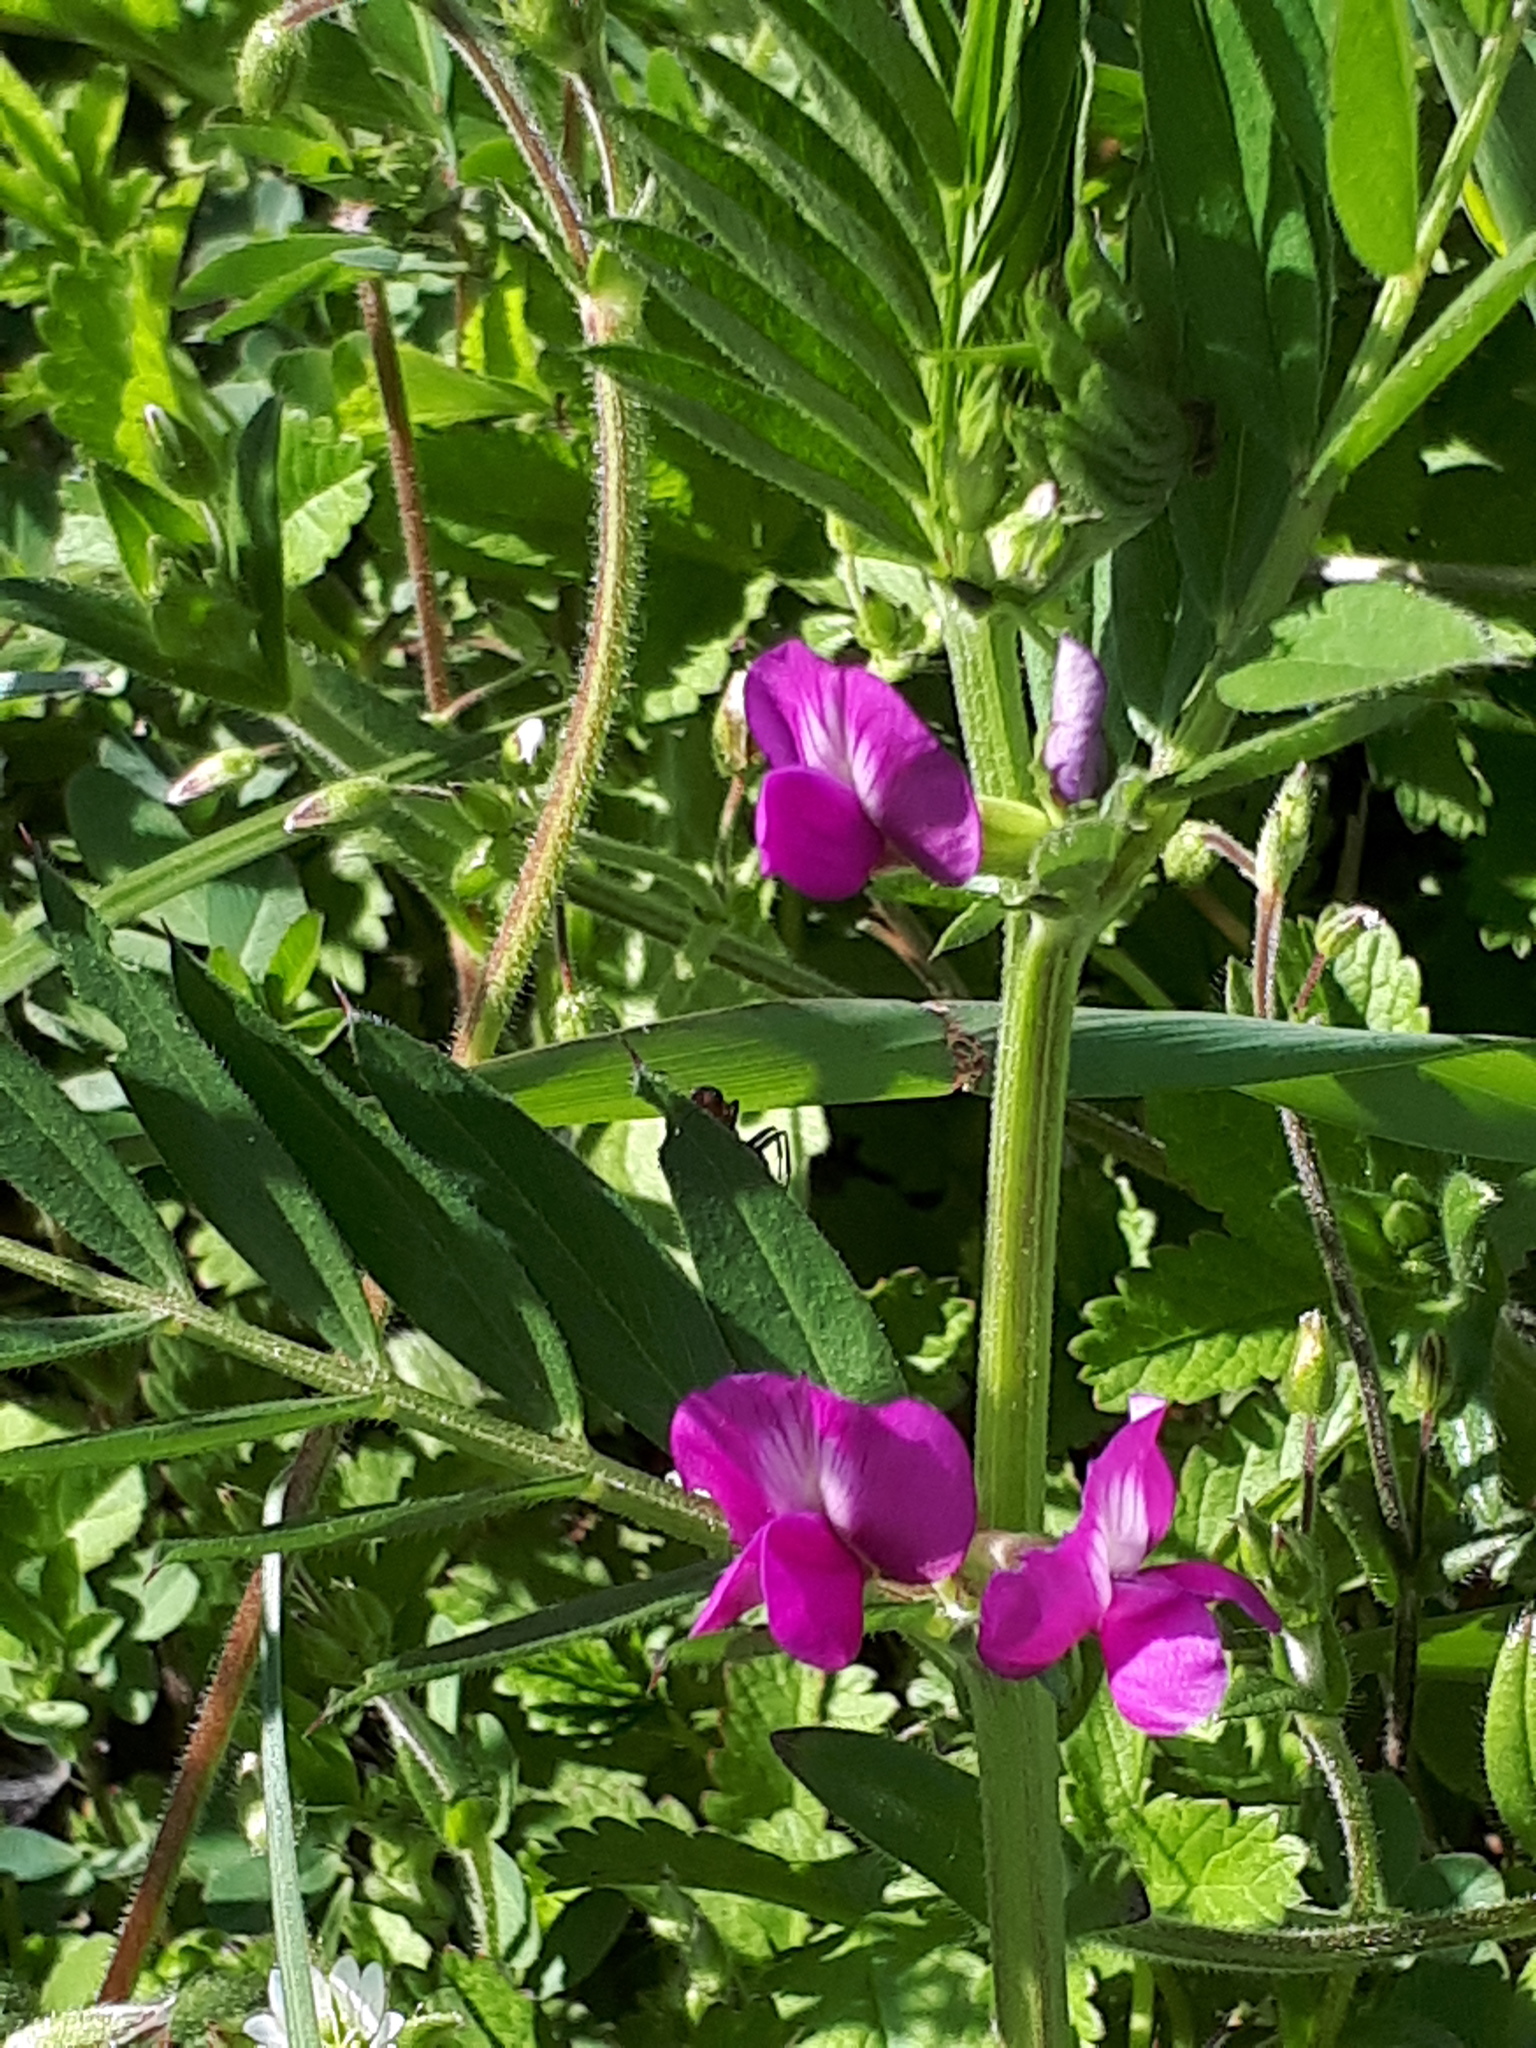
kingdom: Plantae
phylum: Tracheophyta
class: Magnoliopsida
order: Fabales
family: Fabaceae
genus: Vicia
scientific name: Vicia sativa
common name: Garden vetch
